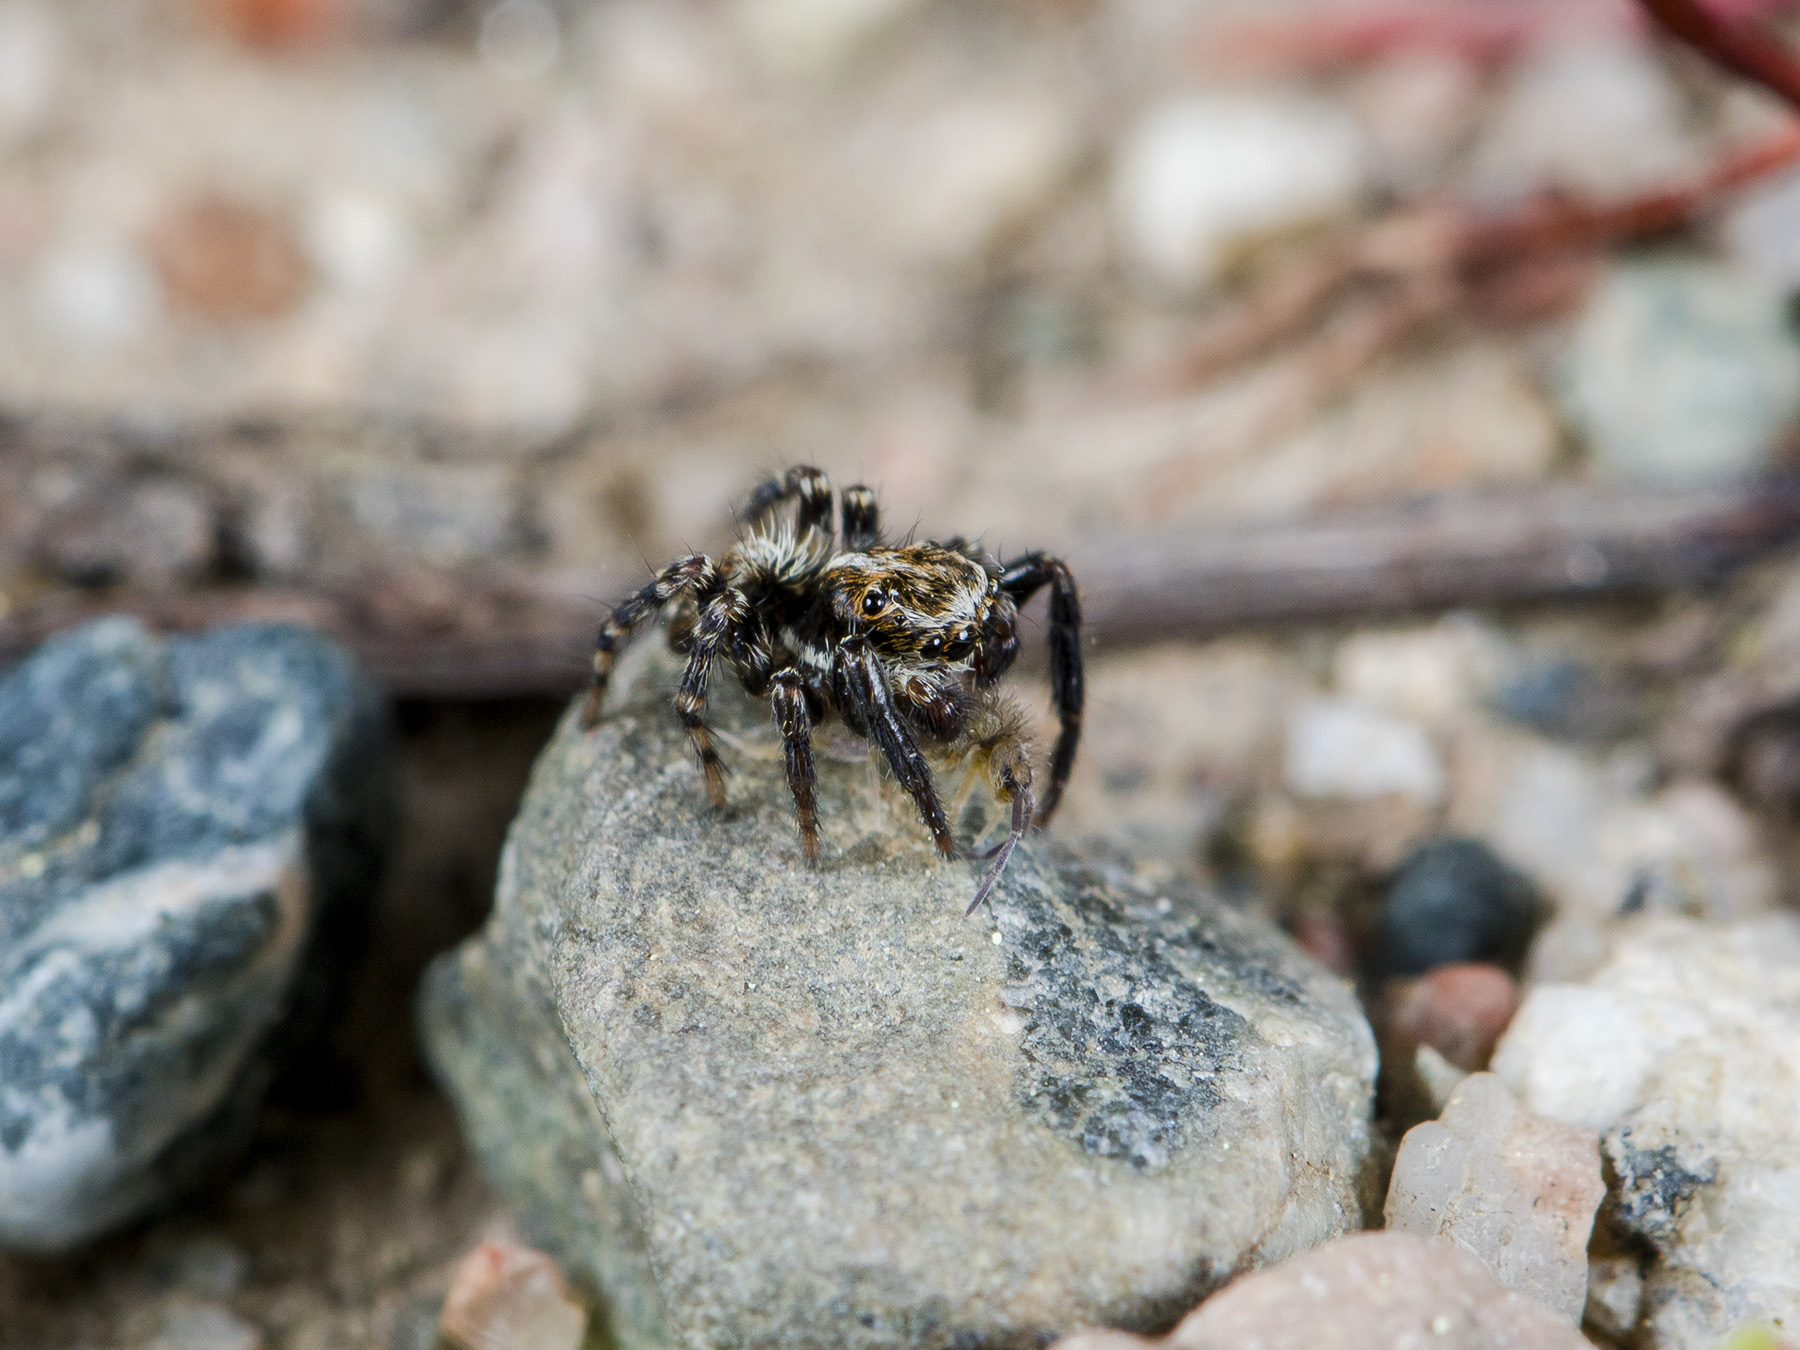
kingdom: Animalia
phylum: Arthropoda
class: Arachnida
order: Araneae
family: Salticidae
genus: Pseudeuophrys
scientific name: Pseudeuophrys obsoleta
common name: Whelk-shell jumper
